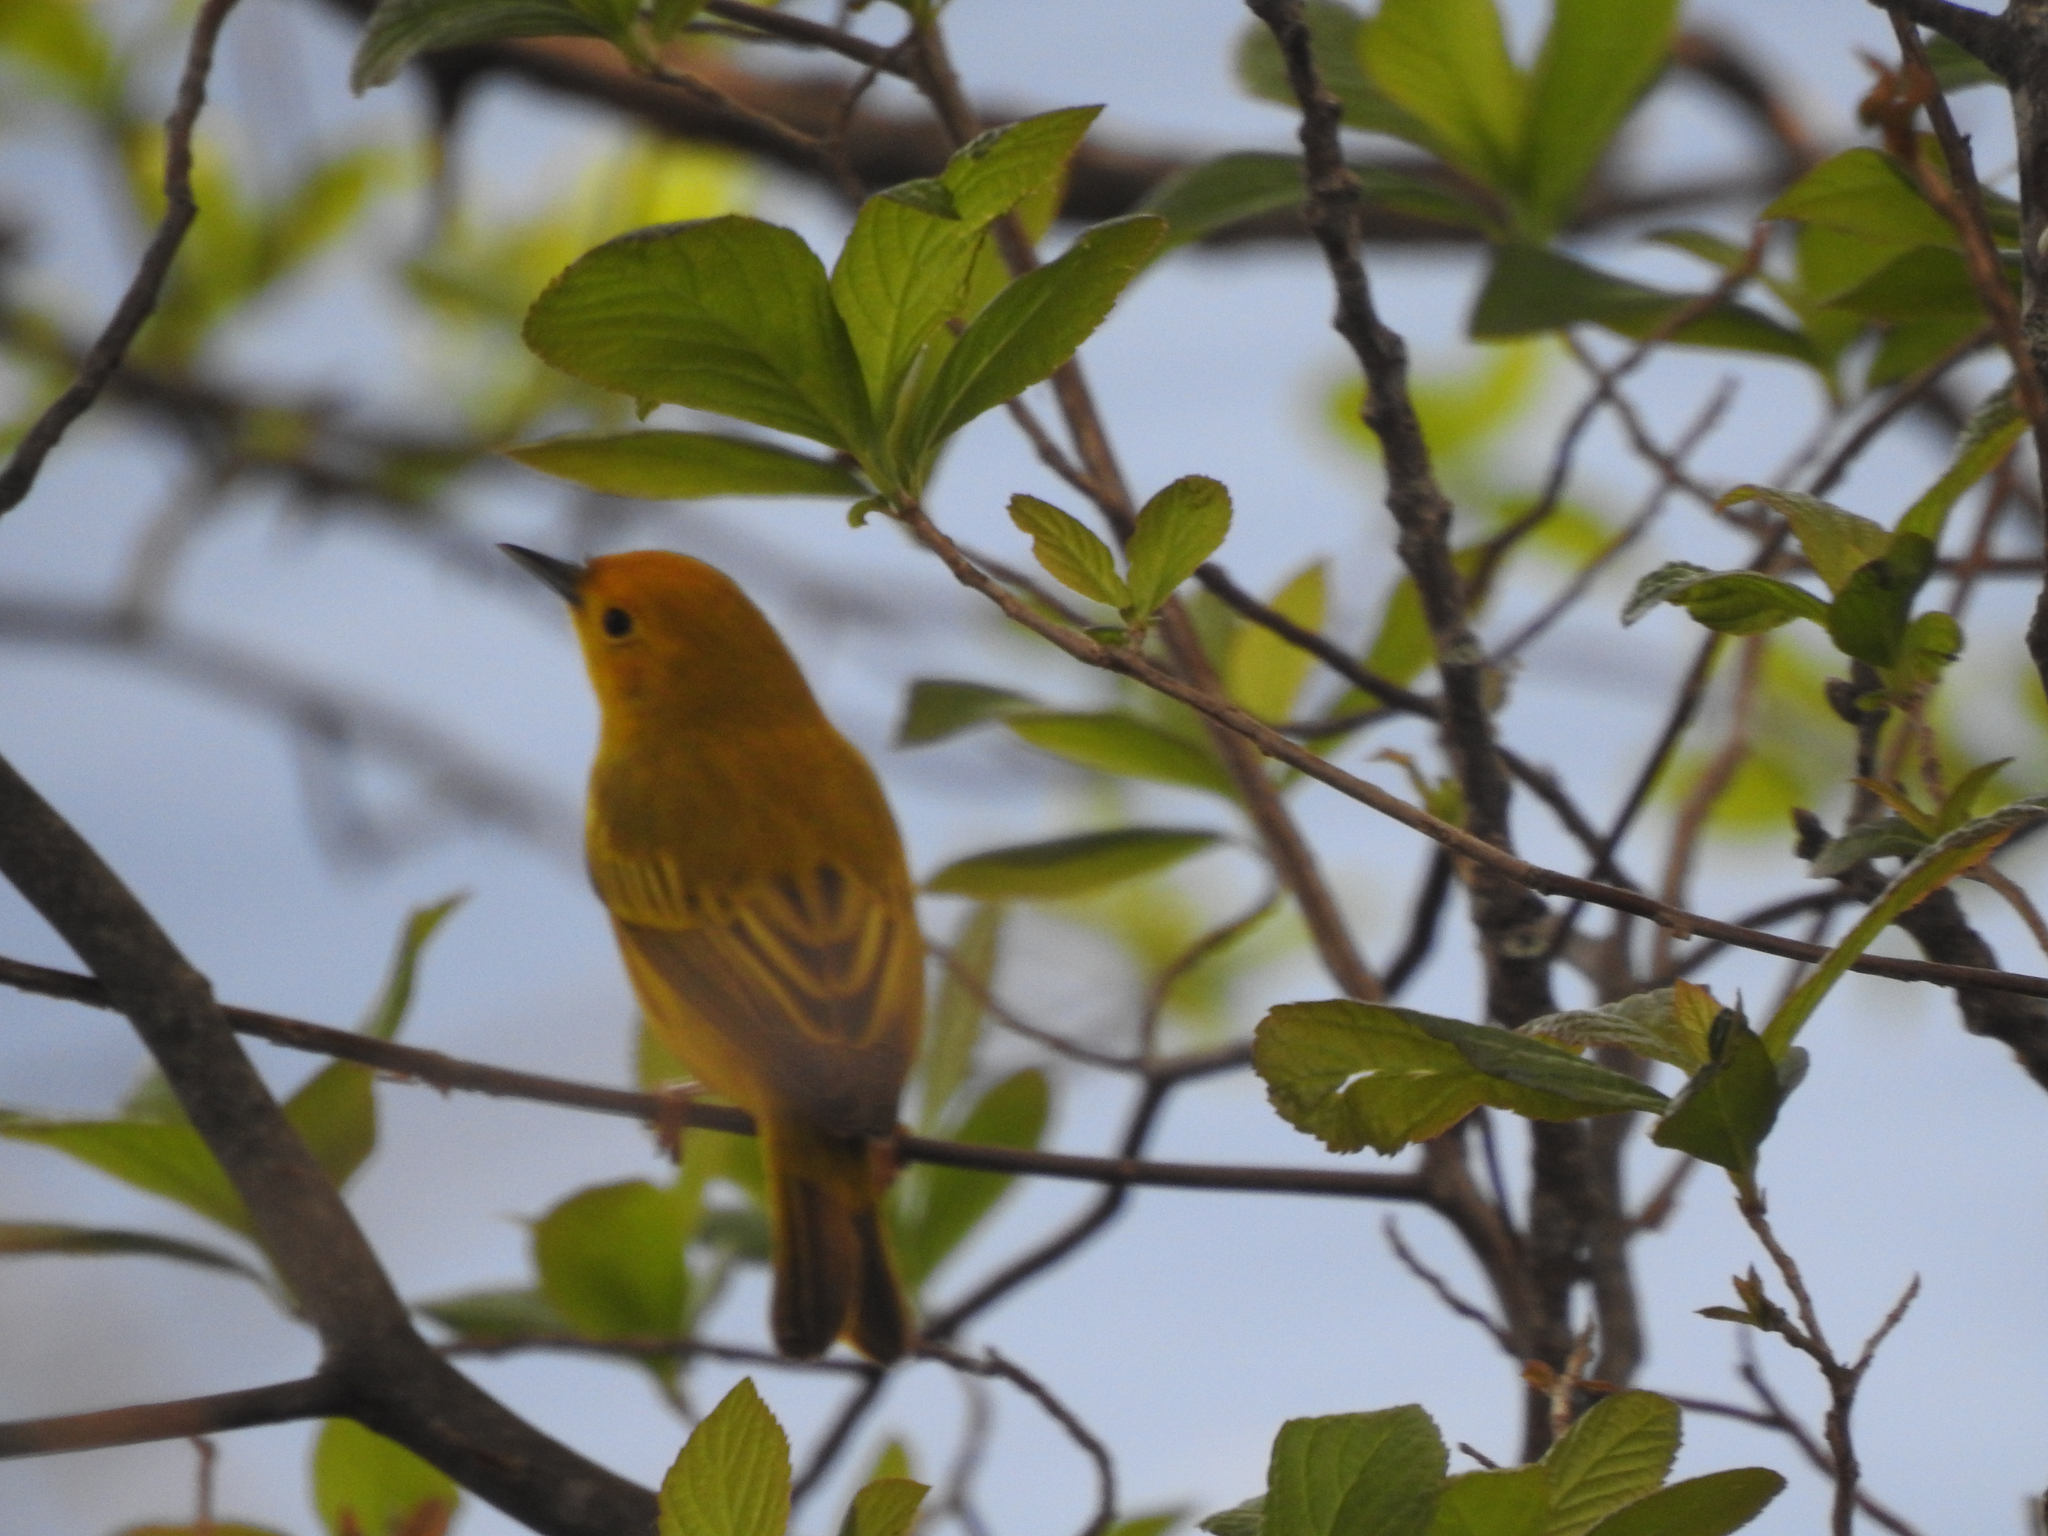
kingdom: Animalia
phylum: Chordata
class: Aves
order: Passeriformes
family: Parulidae
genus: Setophaga
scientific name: Setophaga petechia
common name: Yellow warbler
